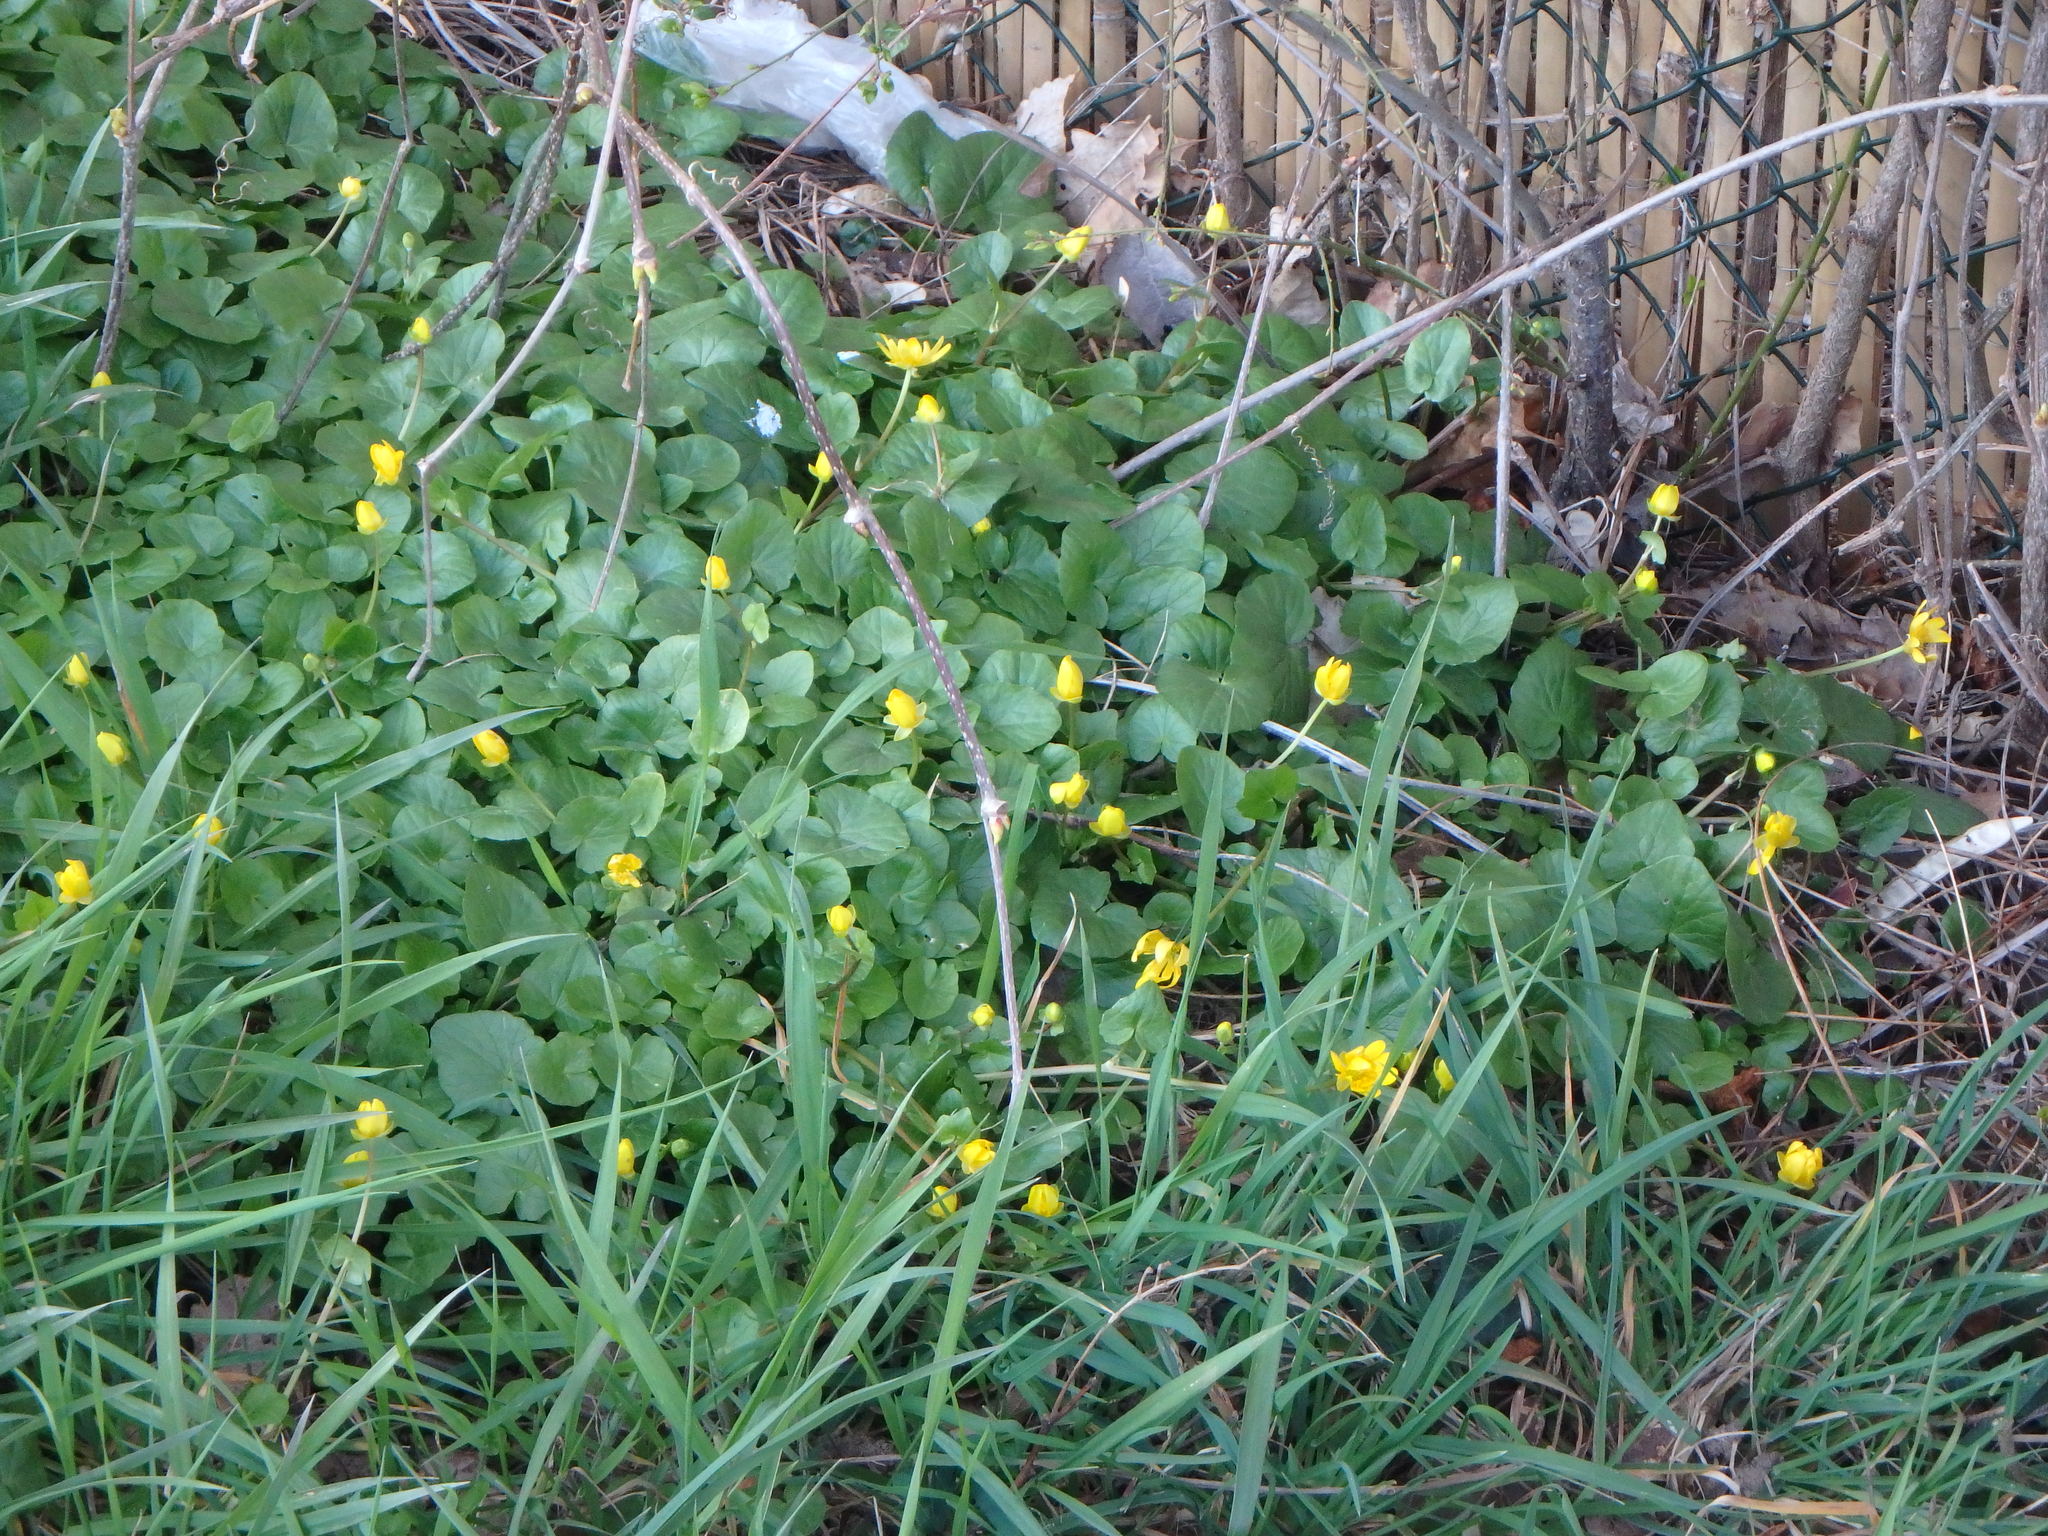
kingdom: Plantae
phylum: Tracheophyta
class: Magnoliopsida
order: Ranunculales
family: Ranunculaceae
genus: Ficaria
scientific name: Ficaria verna
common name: Lesser celandine
